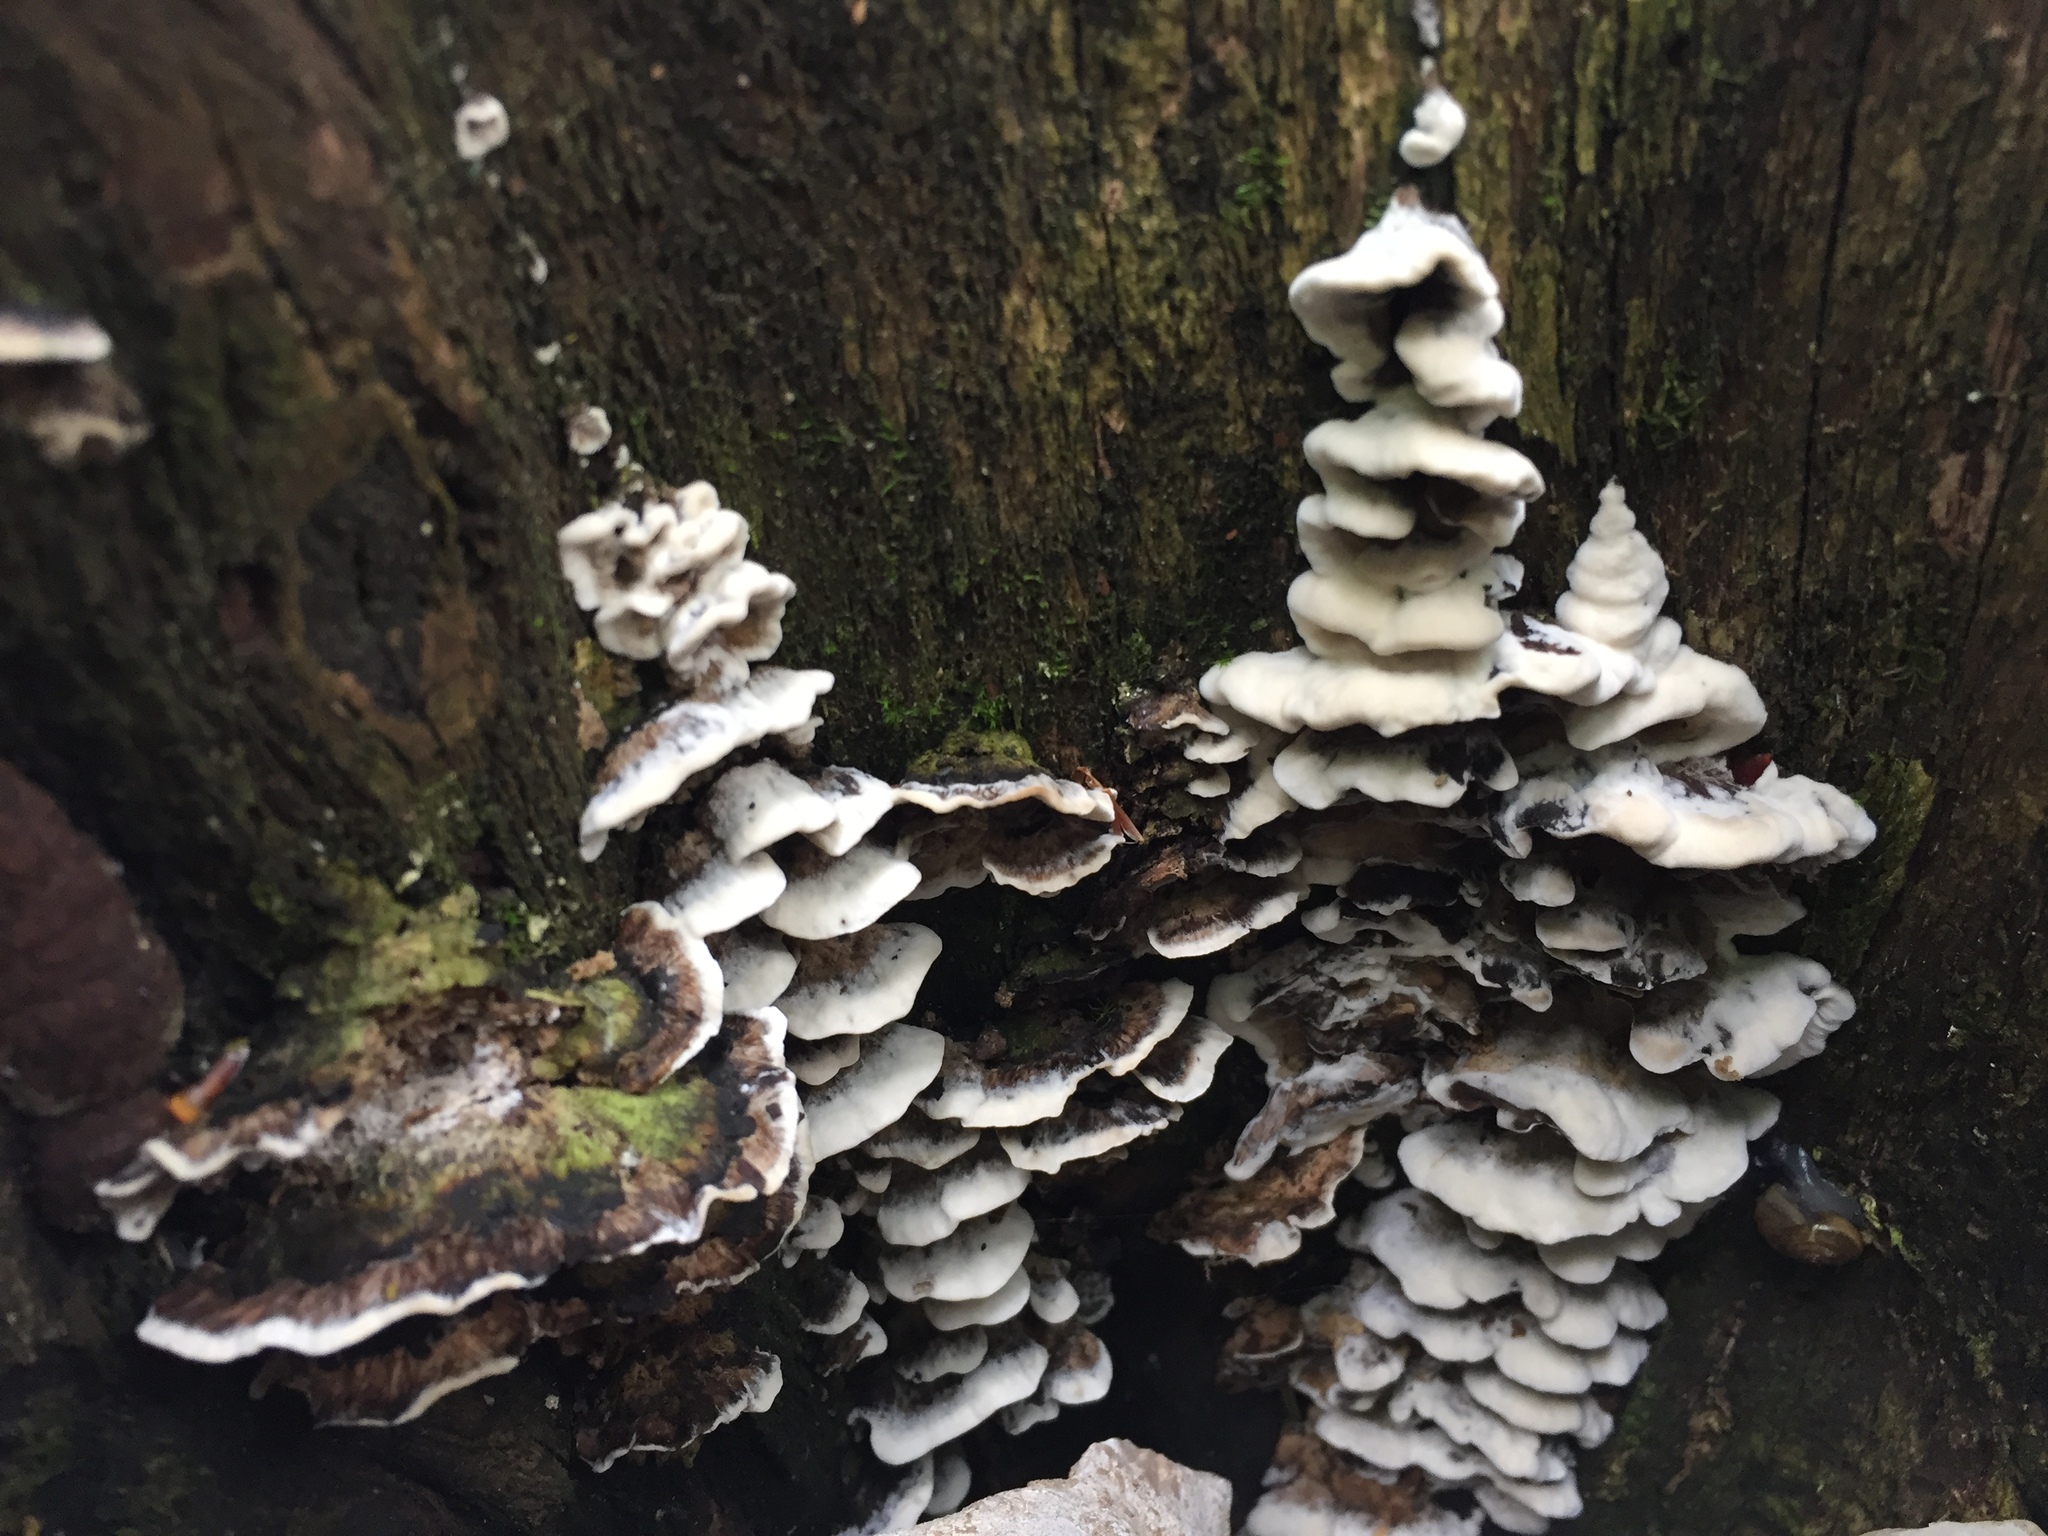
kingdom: Fungi
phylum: Basidiomycota
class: Agaricomycetes
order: Polyporales
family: Phanerochaetaceae
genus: Bjerkandera
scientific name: Bjerkandera adusta
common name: Smoky bracket
